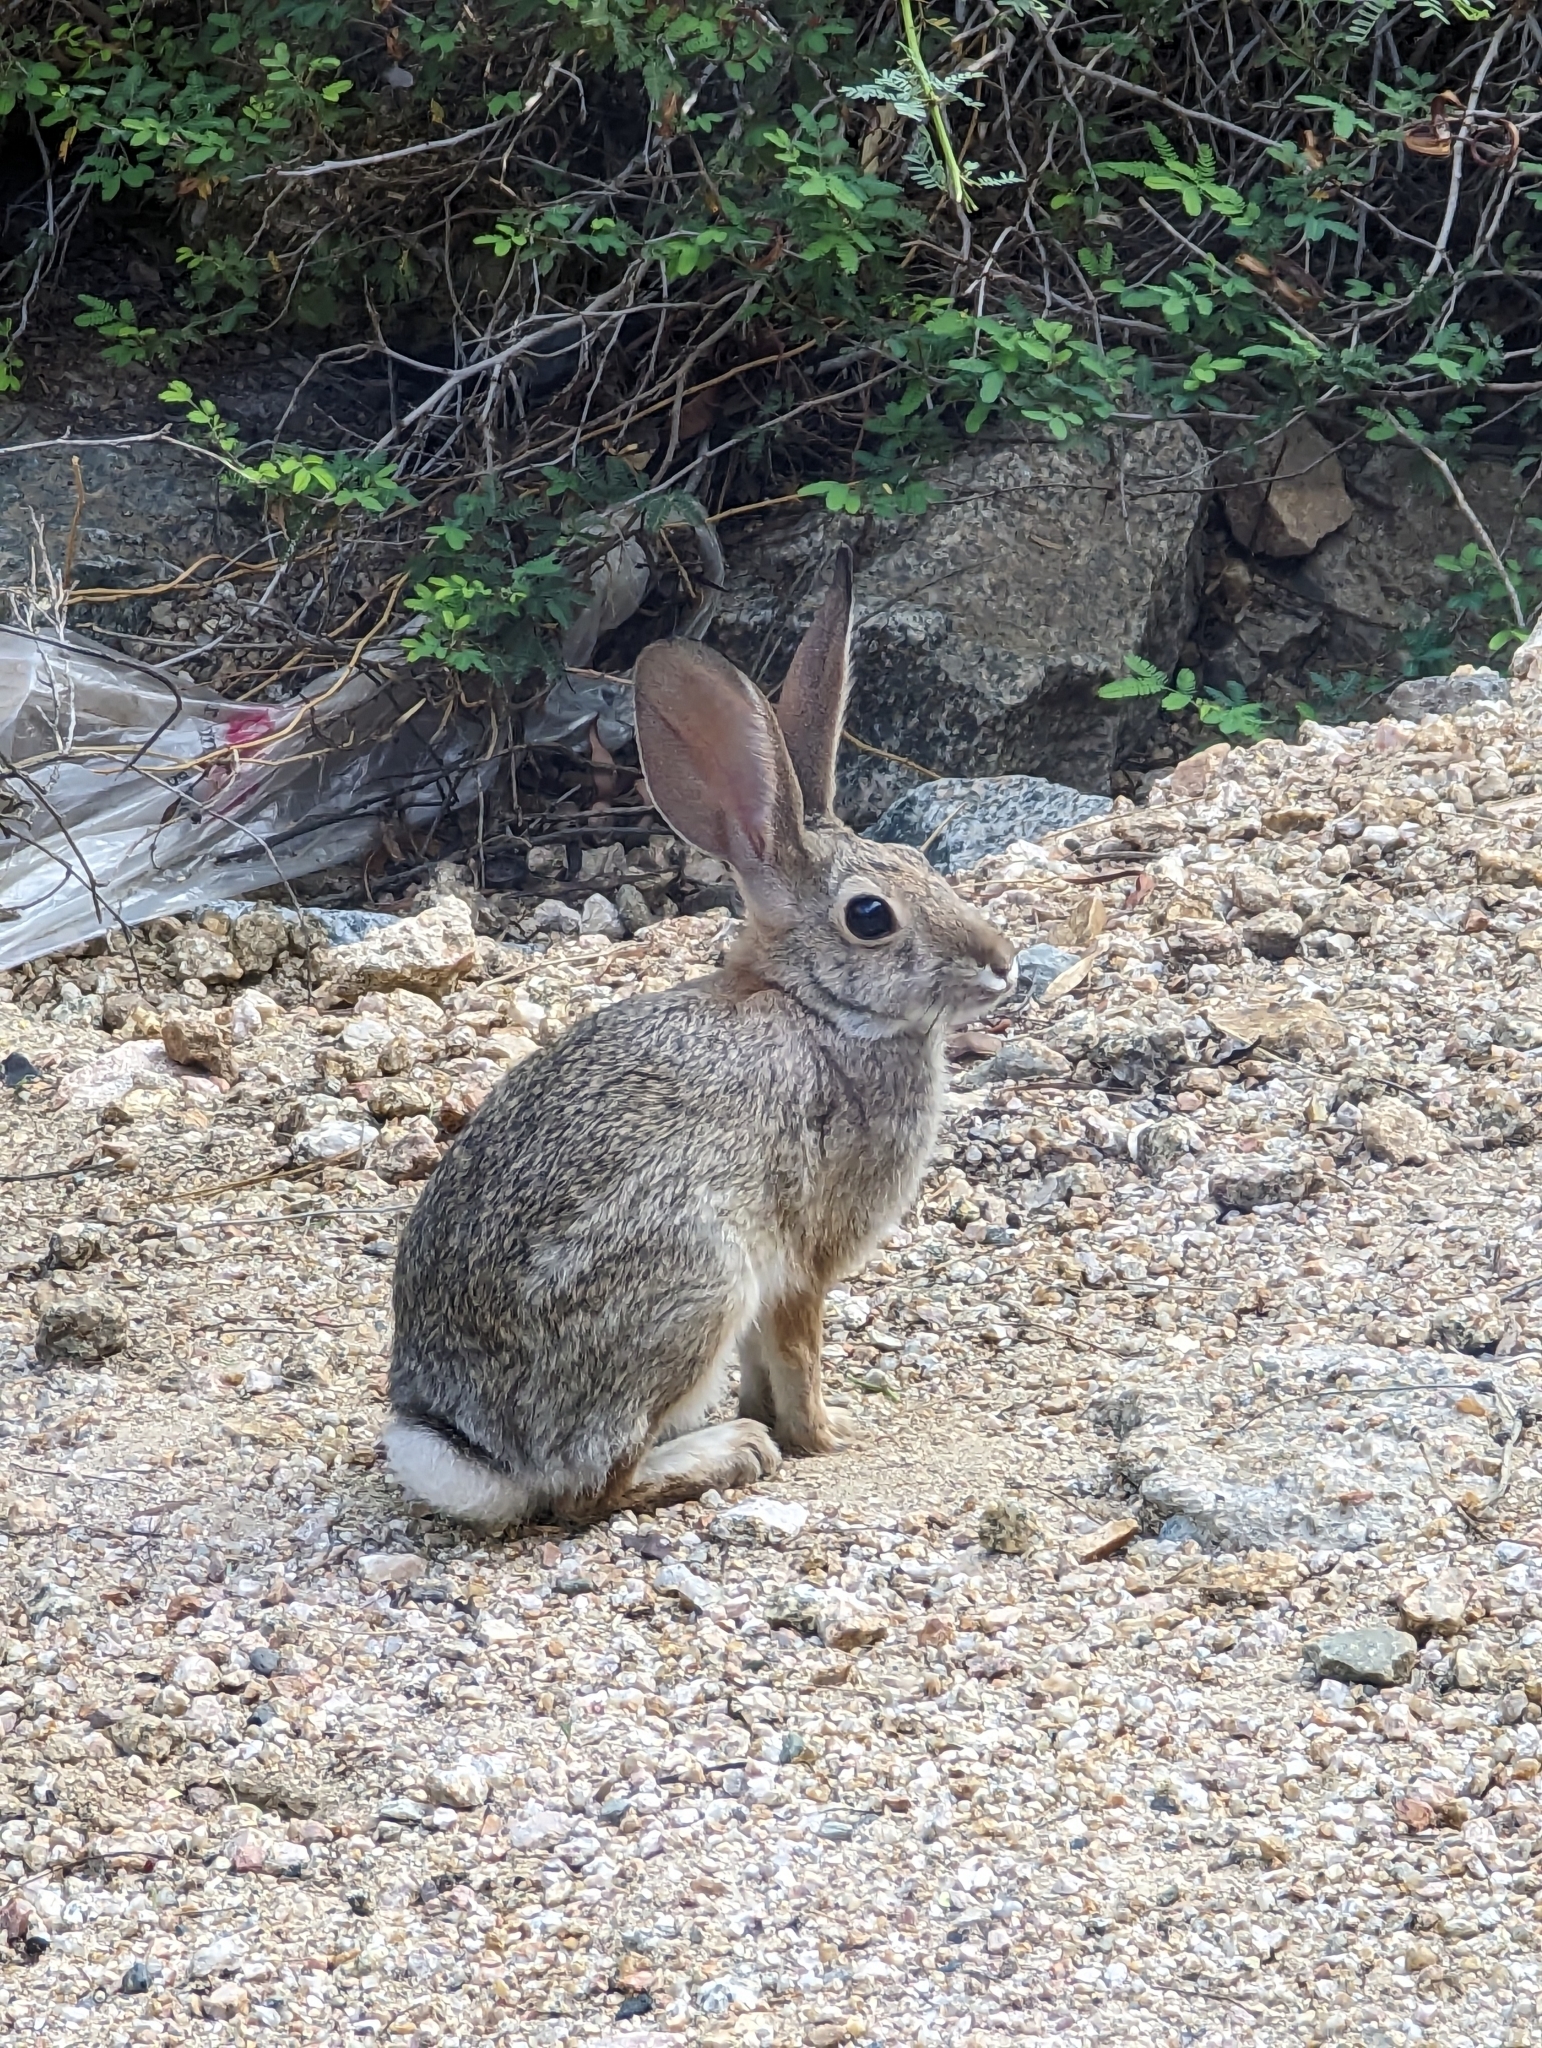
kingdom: Animalia
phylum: Chordata
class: Mammalia
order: Lagomorpha
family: Leporidae
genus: Sylvilagus
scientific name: Sylvilagus audubonii
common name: Desert cottontail
